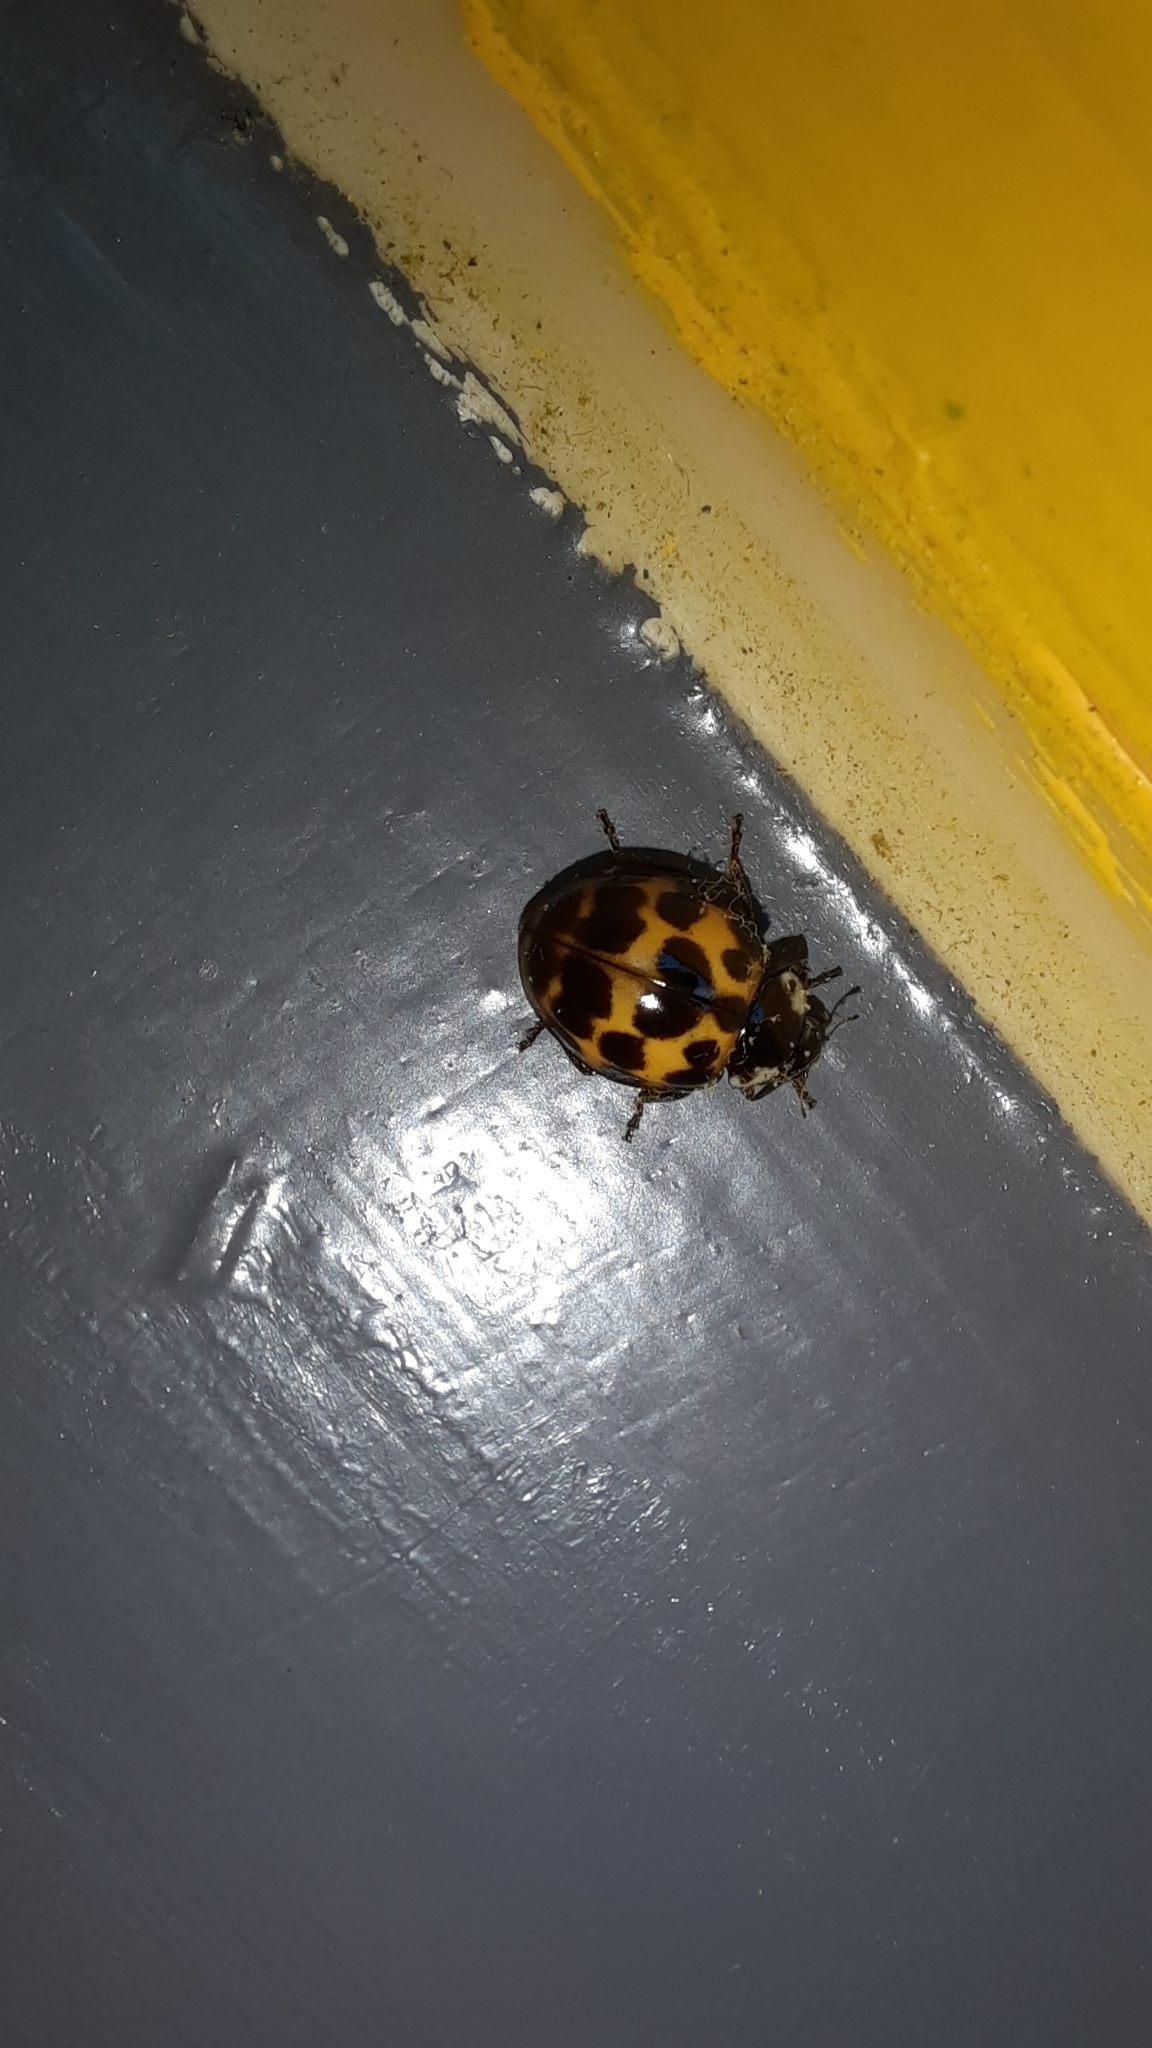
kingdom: Animalia
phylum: Arthropoda
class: Insecta
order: Coleoptera
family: Coccinellidae
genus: Harmonia
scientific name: Harmonia axyridis
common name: Harlequin ladybird
